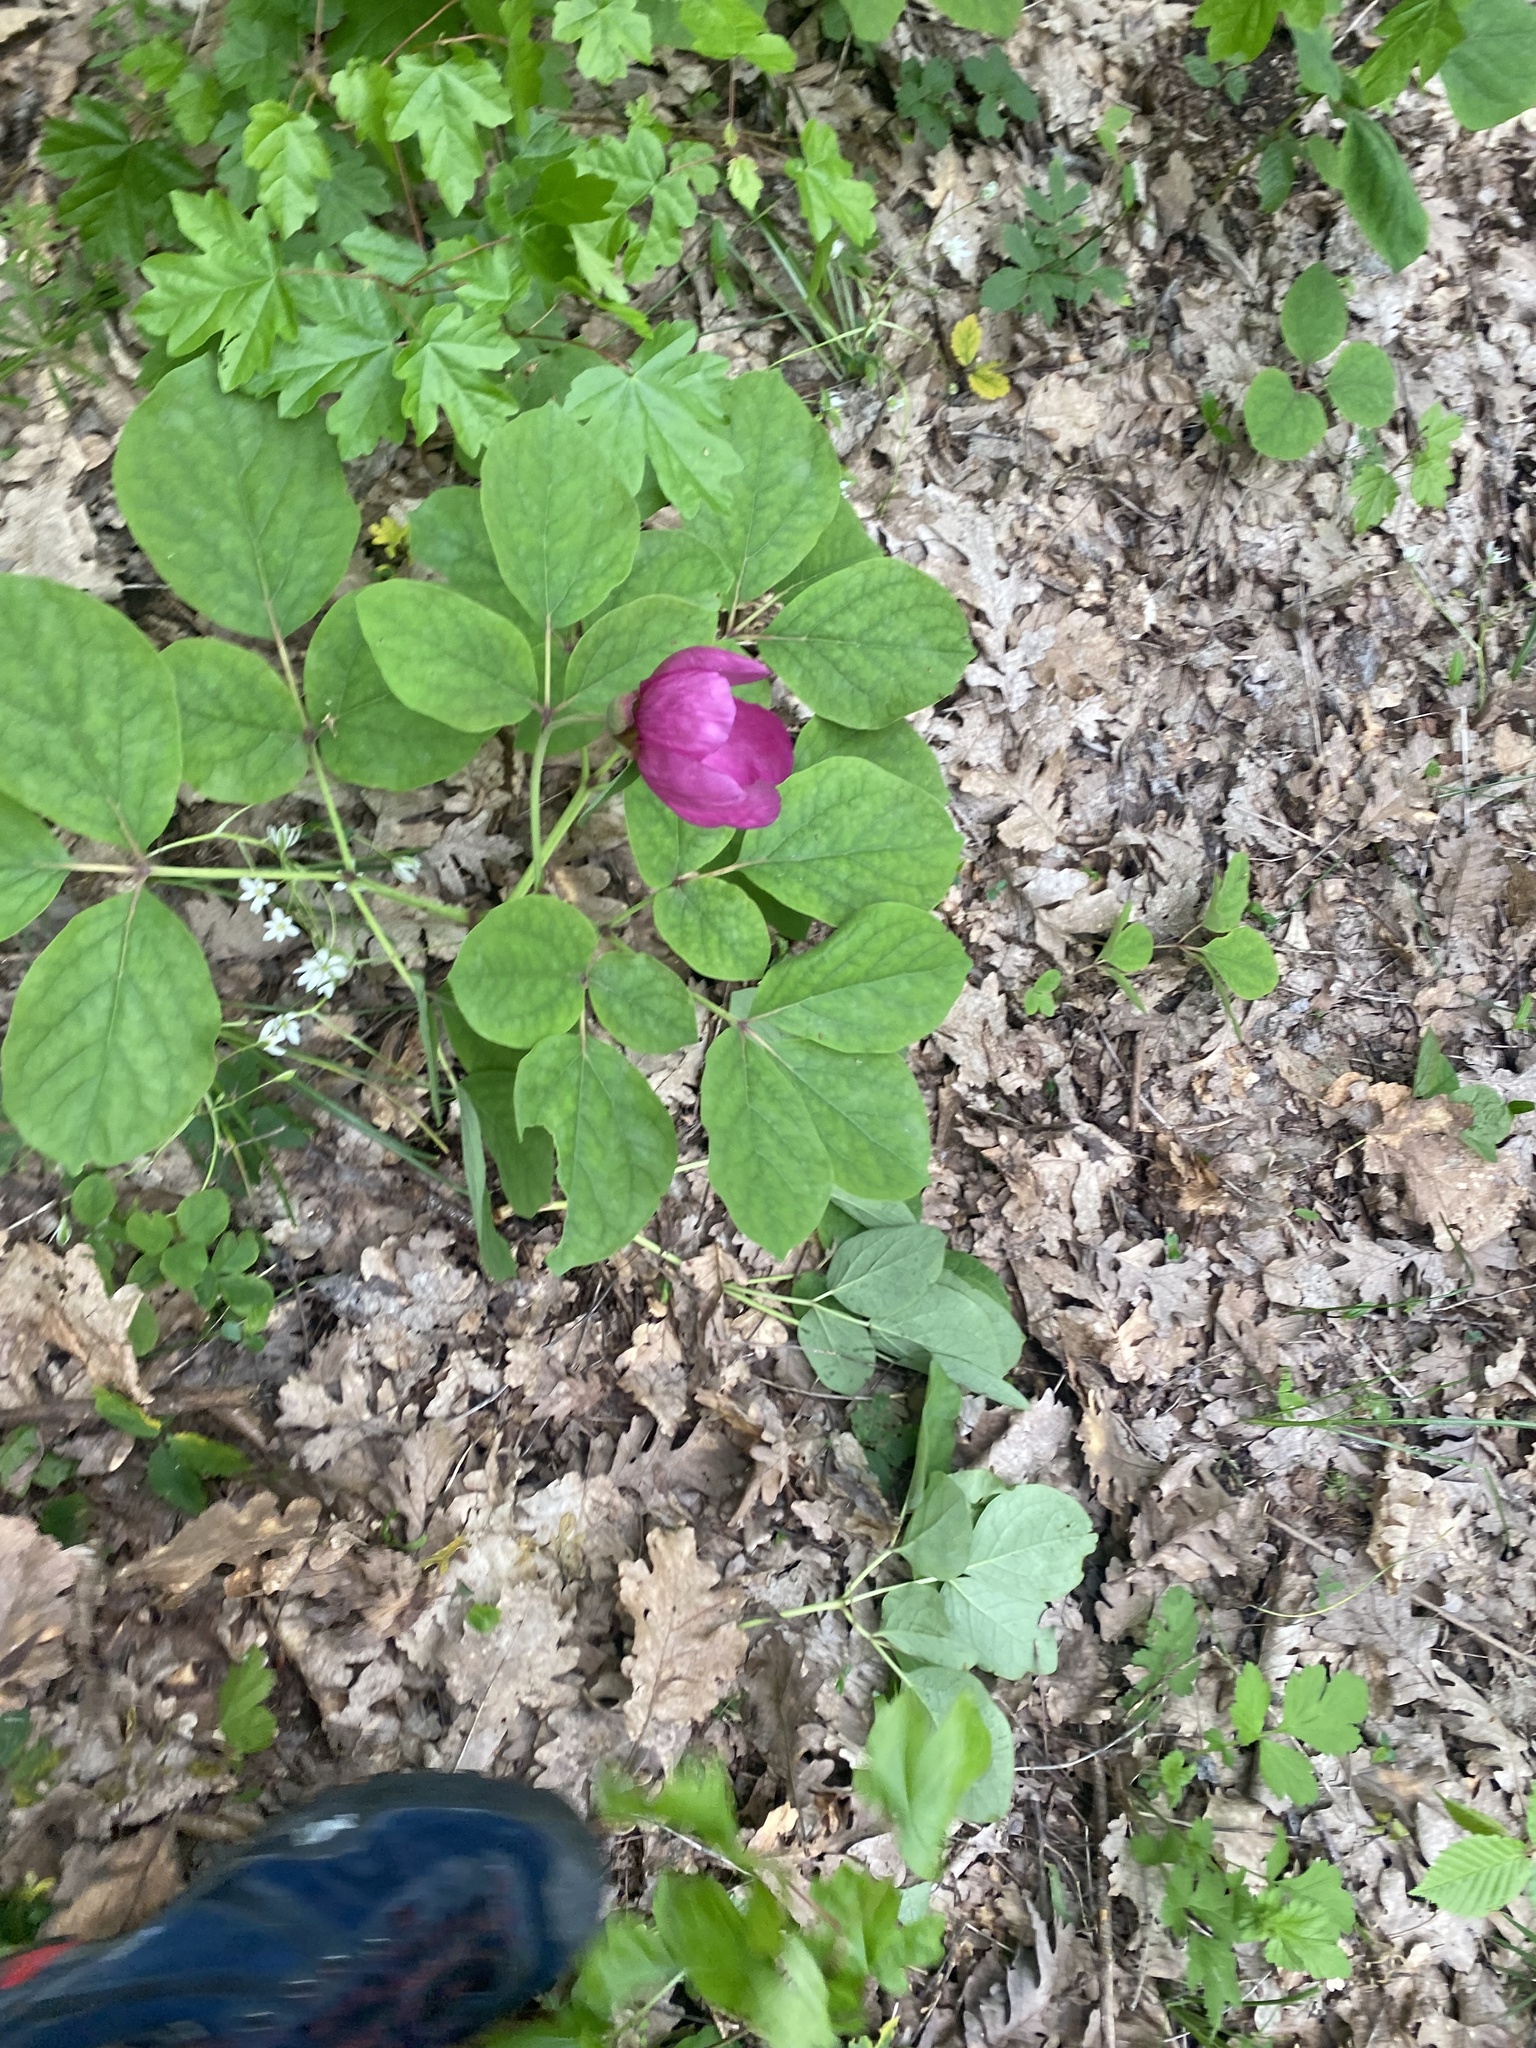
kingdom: Plantae
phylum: Tracheophyta
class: Magnoliopsida
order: Saxifragales
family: Paeoniaceae
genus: Paeonia
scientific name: Paeonia caucasica
